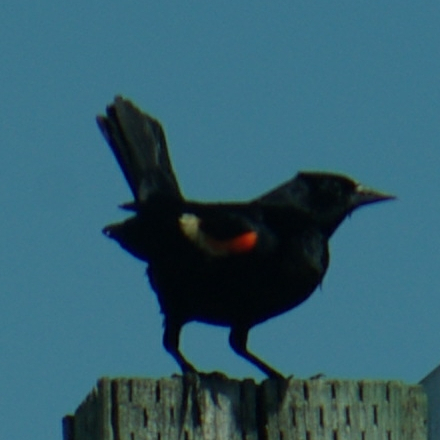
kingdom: Animalia
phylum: Chordata
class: Aves
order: Passeriformes
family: Icteridae
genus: Agelaius
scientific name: Agelaius phoeniceus
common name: Red-winged blackbird
